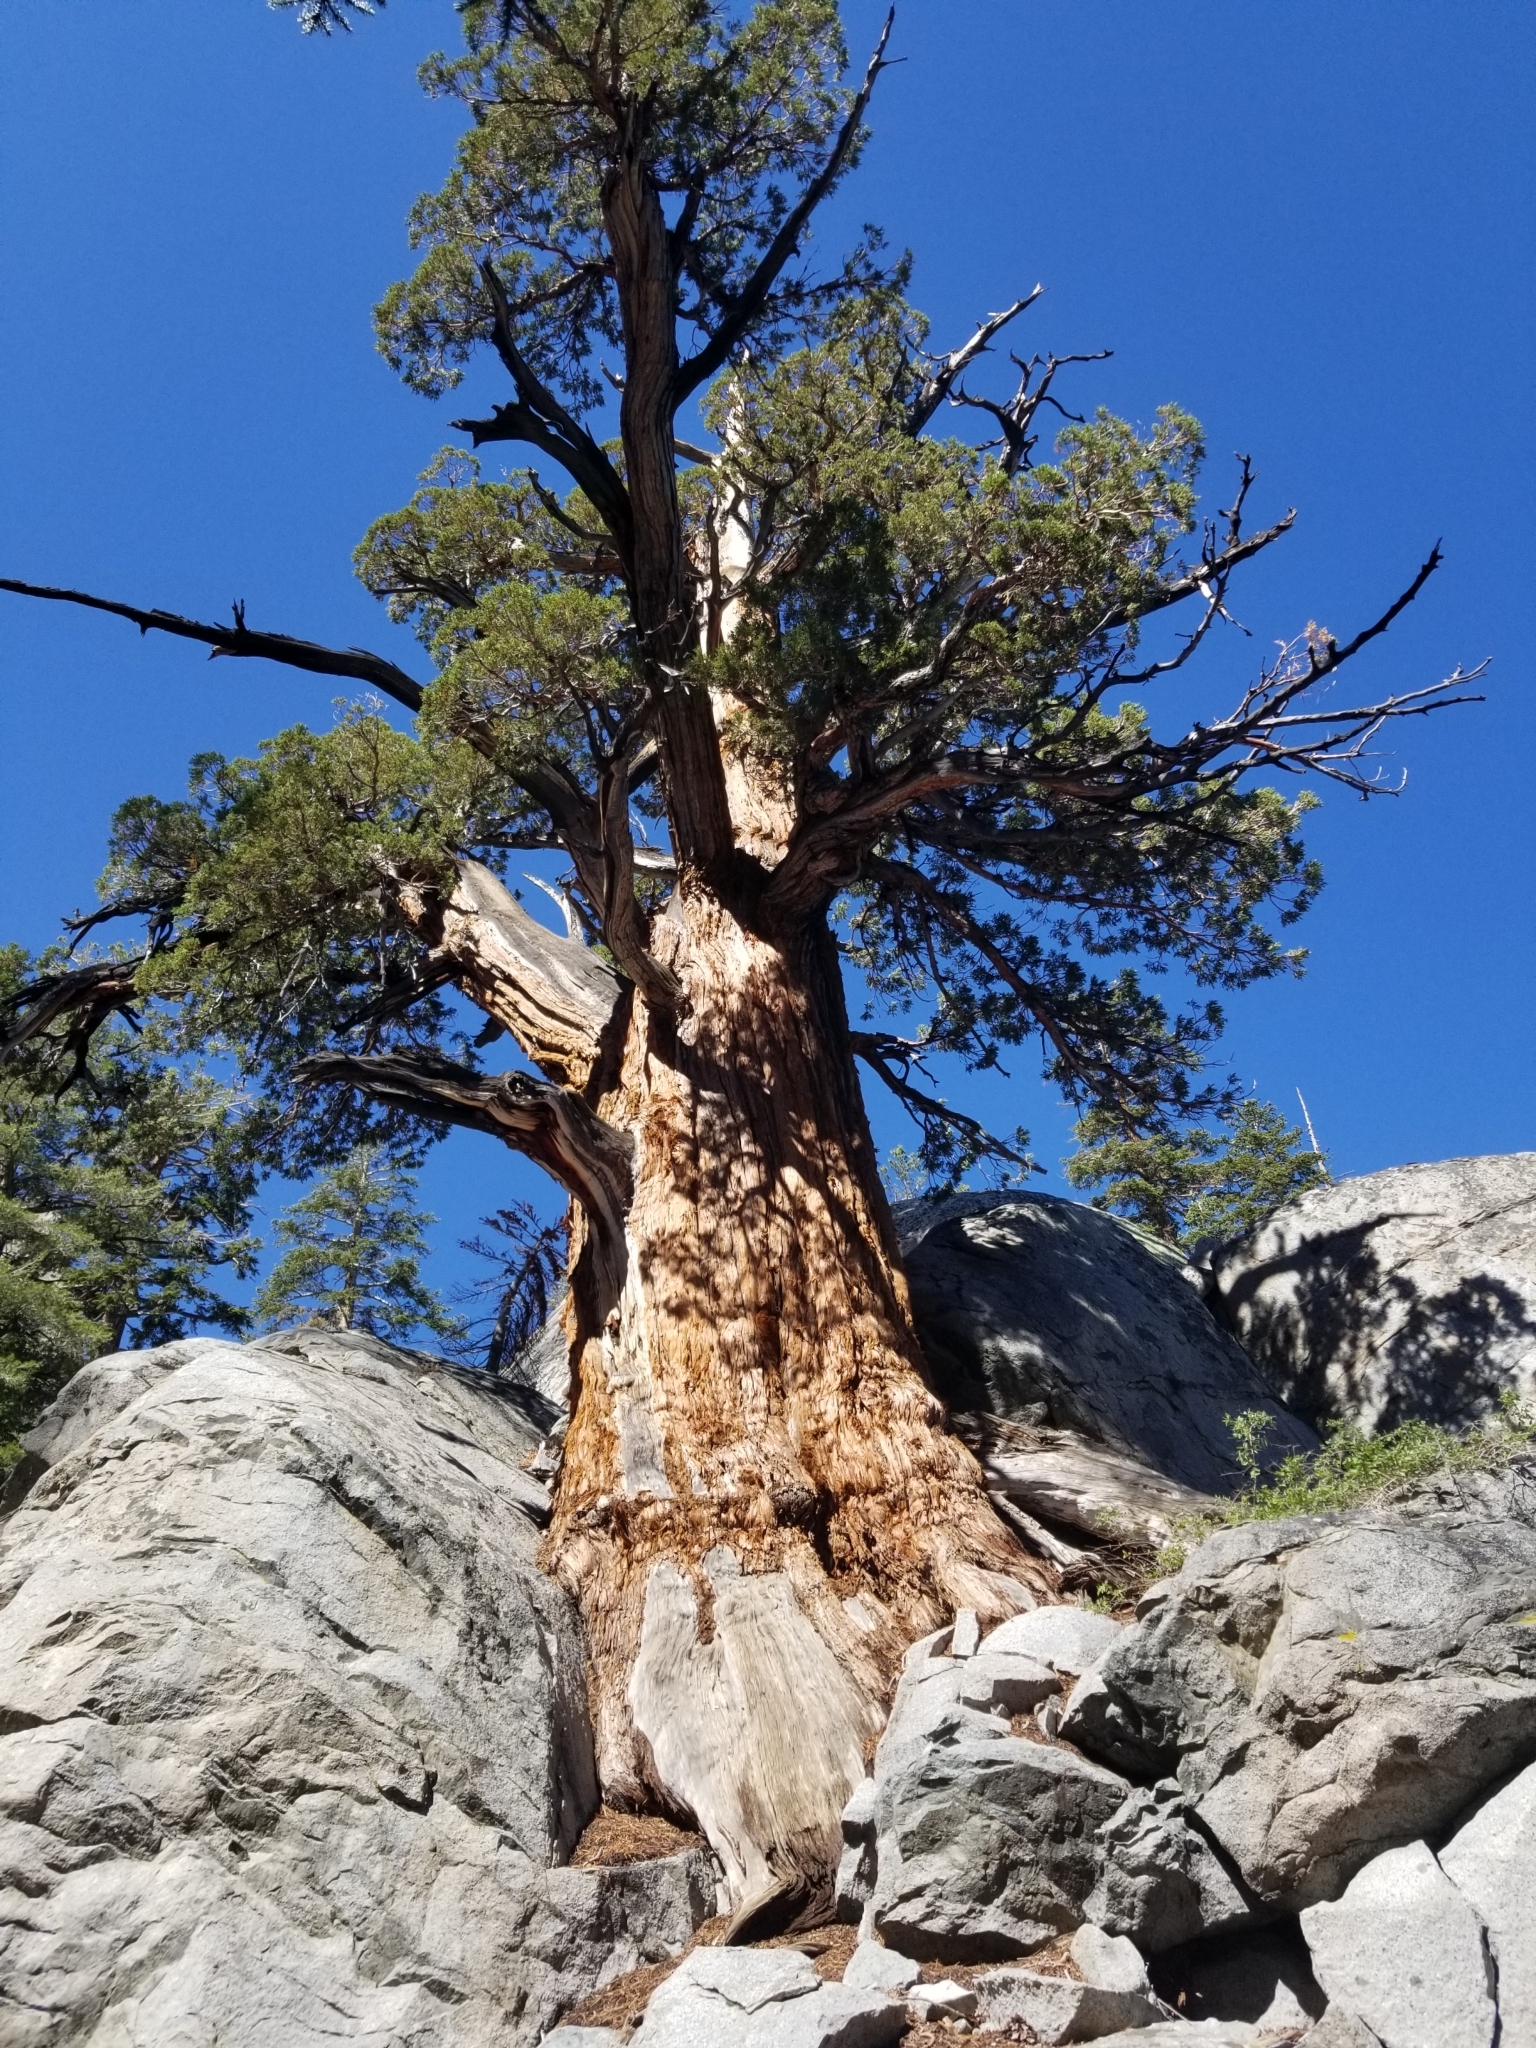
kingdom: Plantae
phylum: Tracheophyta
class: Pinopsida
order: Pinales
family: Cupressaceae
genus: Juniperus
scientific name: Juniperus occidentalis
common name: Western juniper
